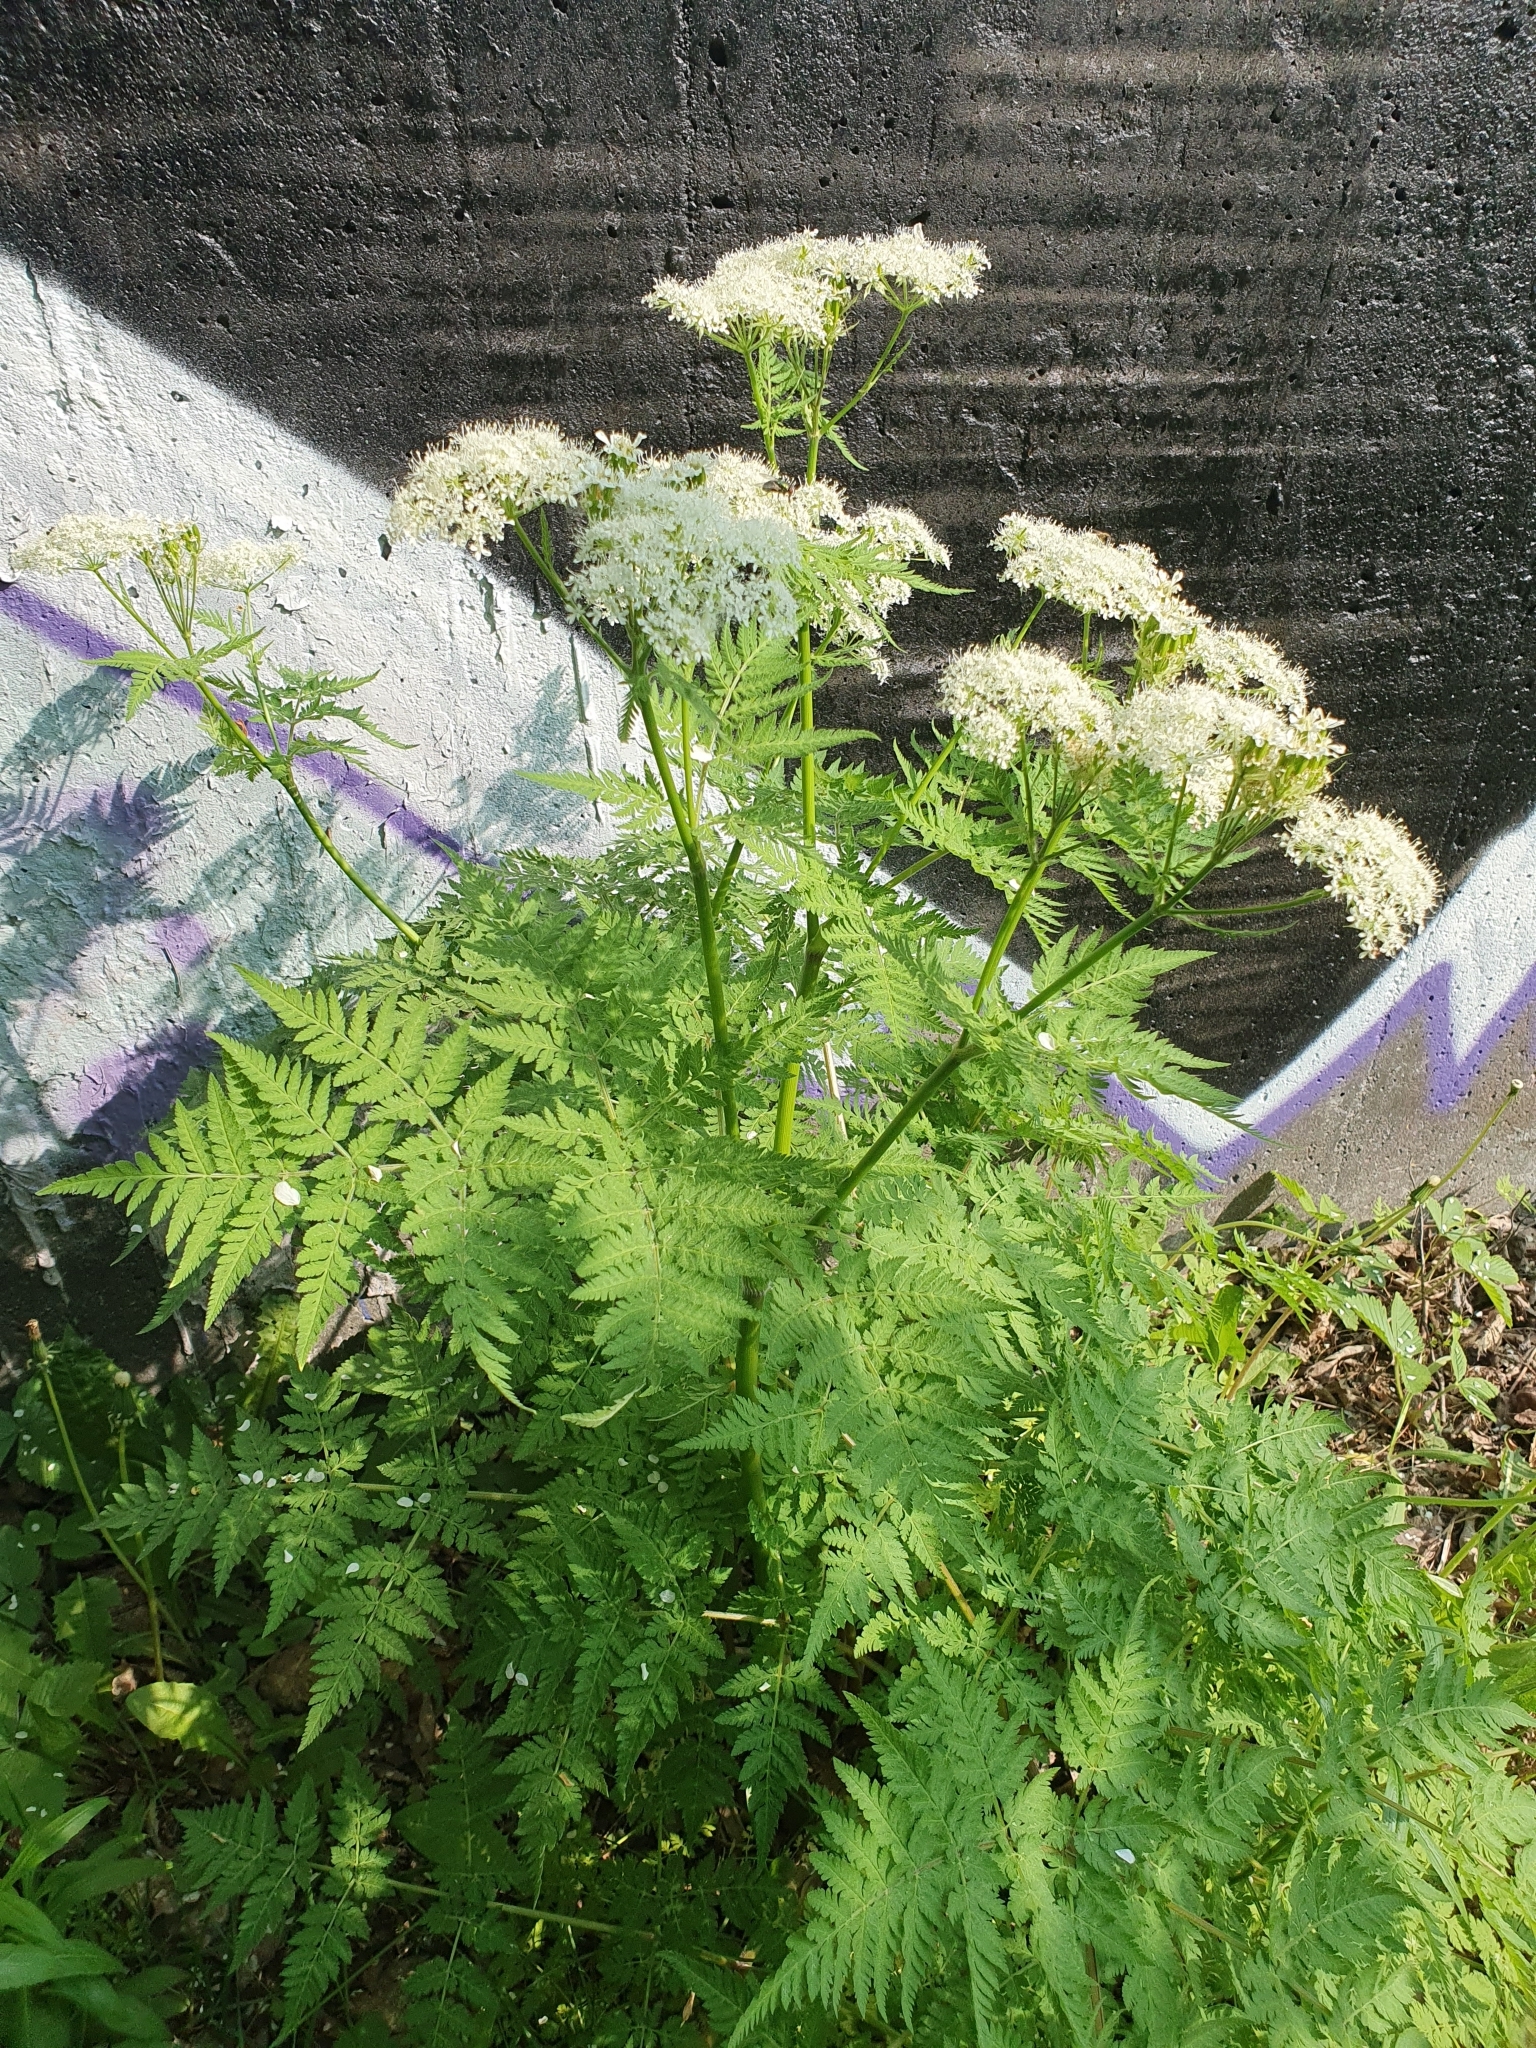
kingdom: Plantae
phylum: Tracheophyta
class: Magnoliopsida
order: Apiales
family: Apiaceae
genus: Myrrhis
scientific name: Myrrhis odorata
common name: Sweet cicely
